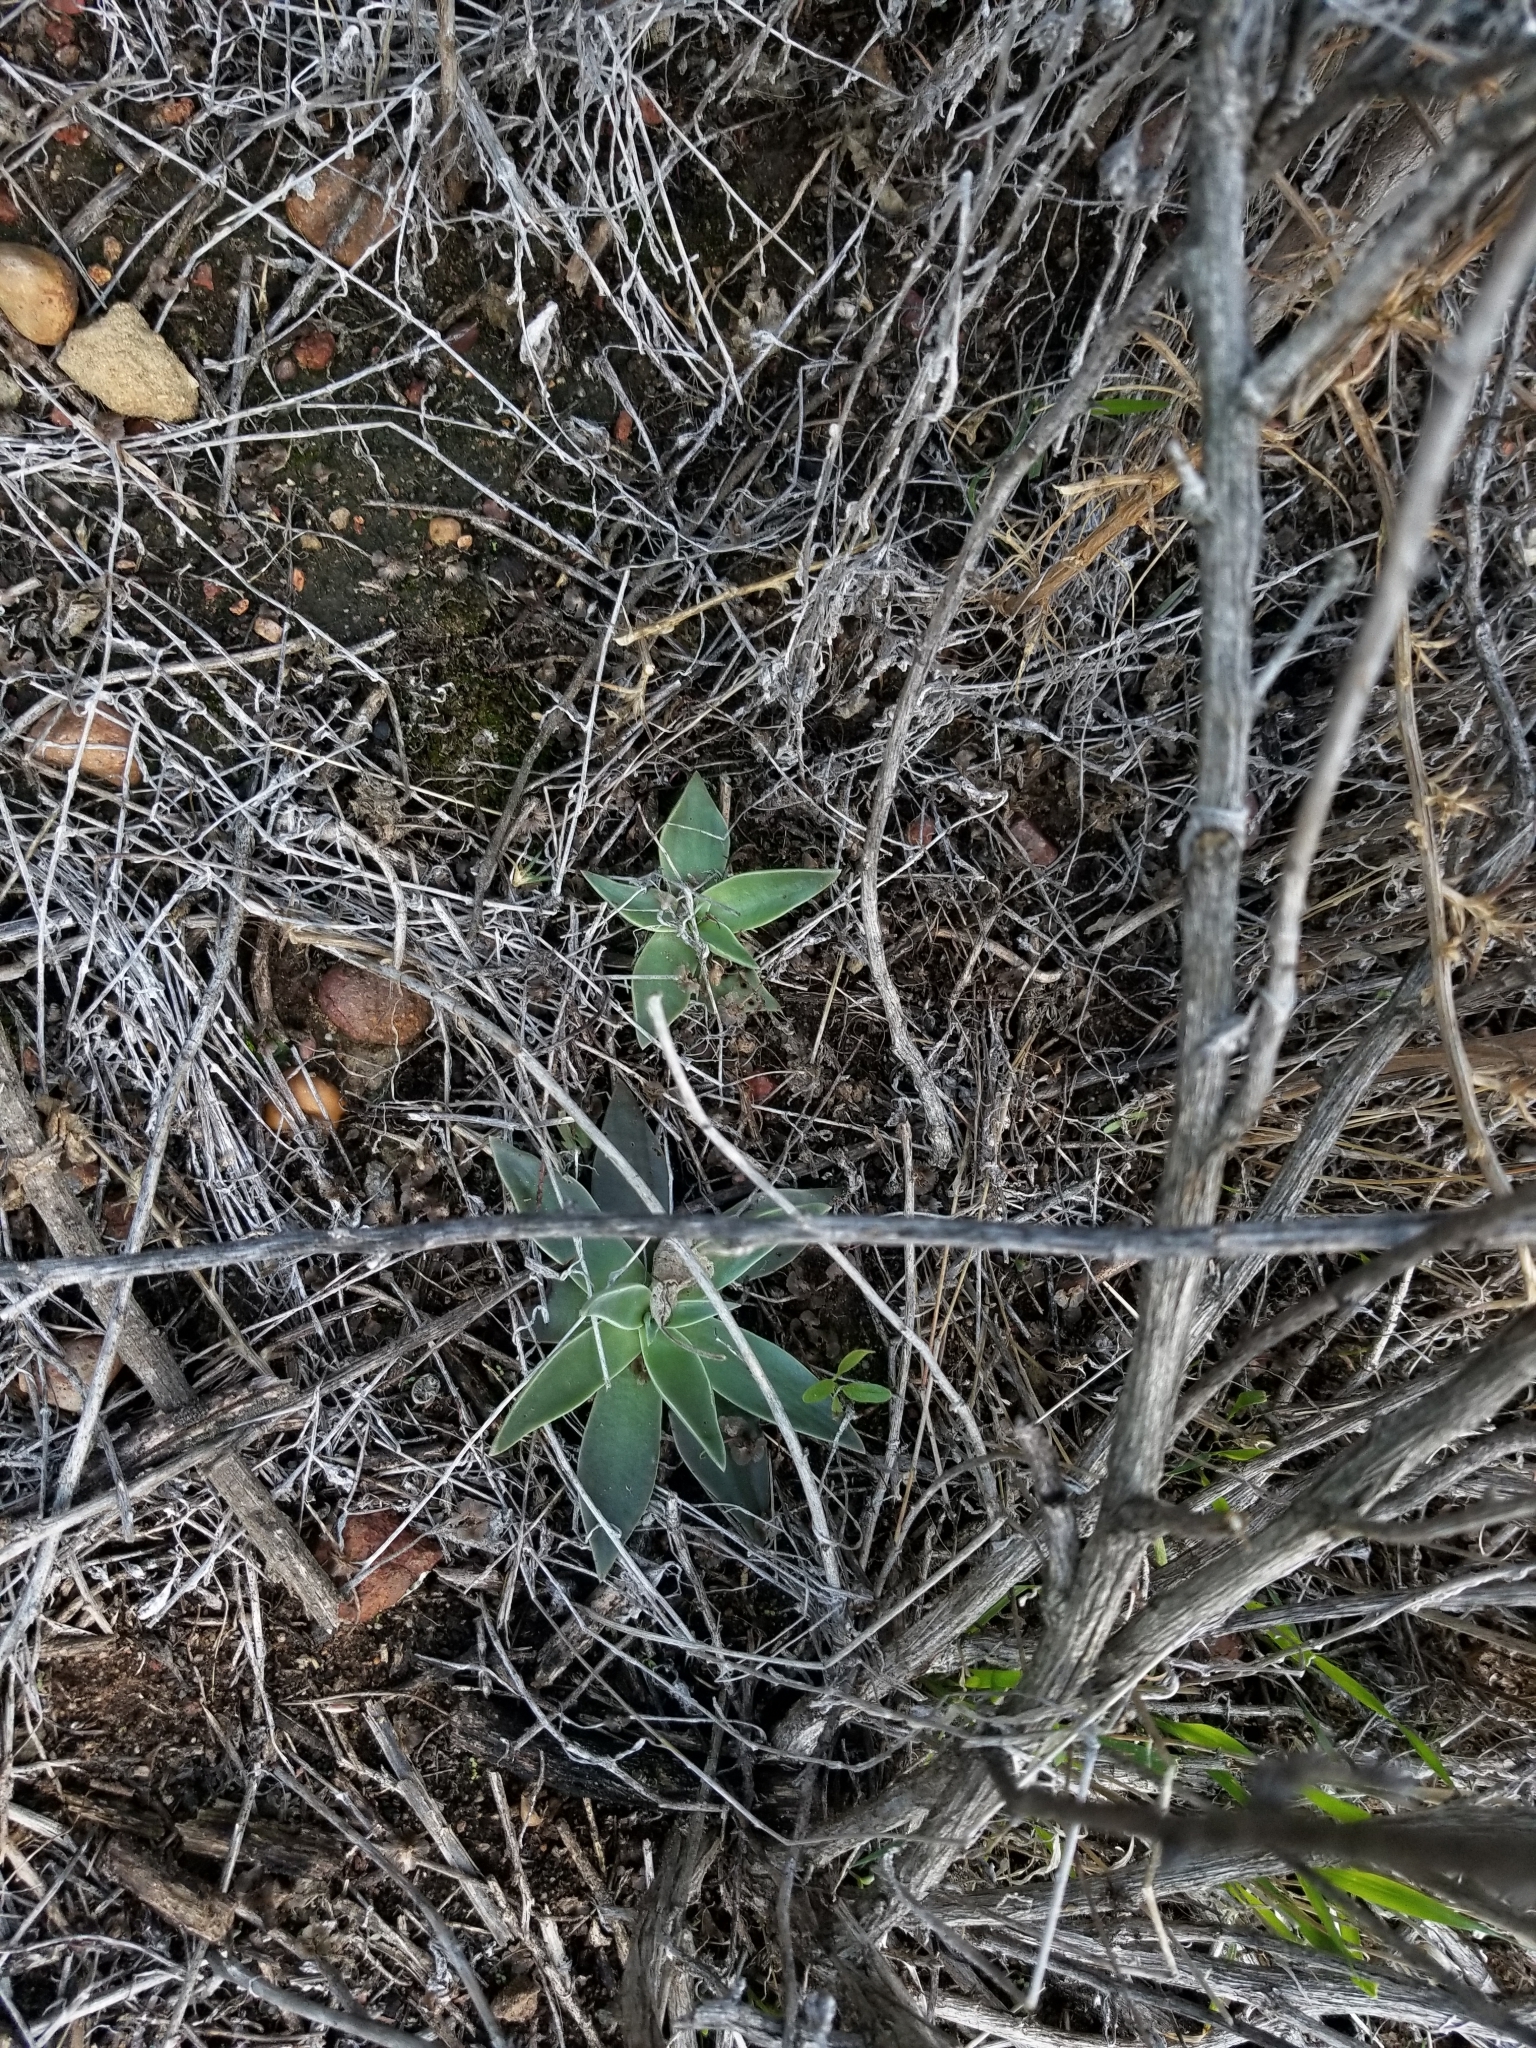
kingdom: Plantae
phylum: Tracheophyta
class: Magnoliopsida
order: Saxifragales
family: Crassulaceae
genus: Dudleya
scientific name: Dudleya lanceolata
